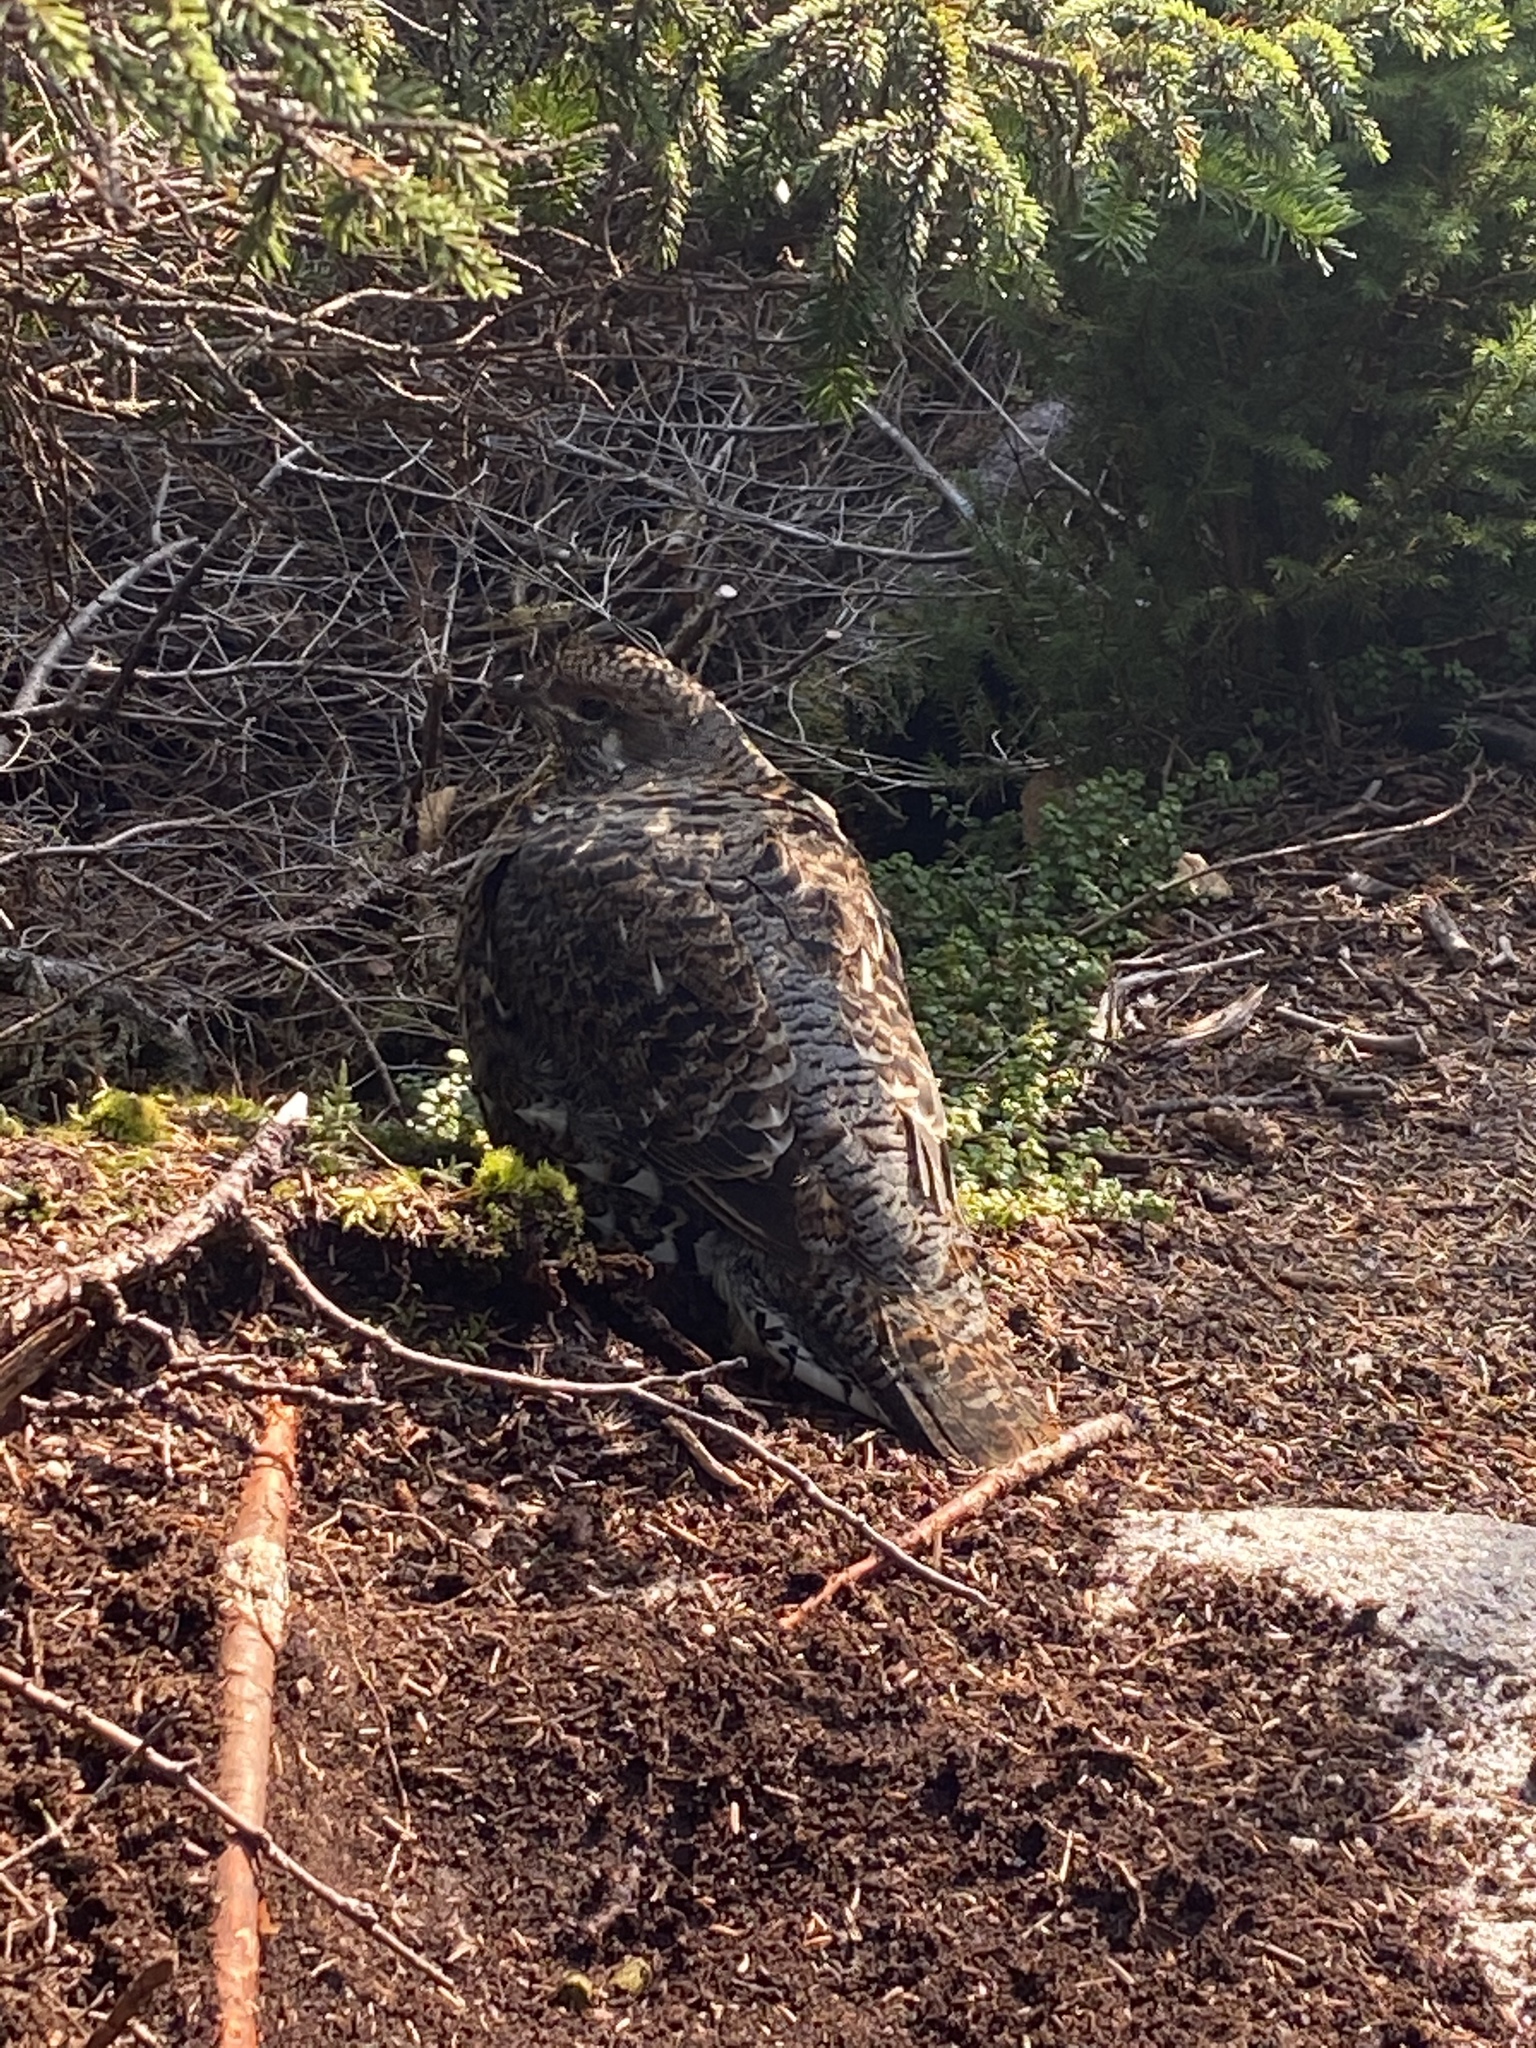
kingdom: Animalia
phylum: Chordata
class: Aves
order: Galliformes
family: Phasianidae
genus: Bonasa
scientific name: Bonasa umbellus
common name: Ruffed grouse
